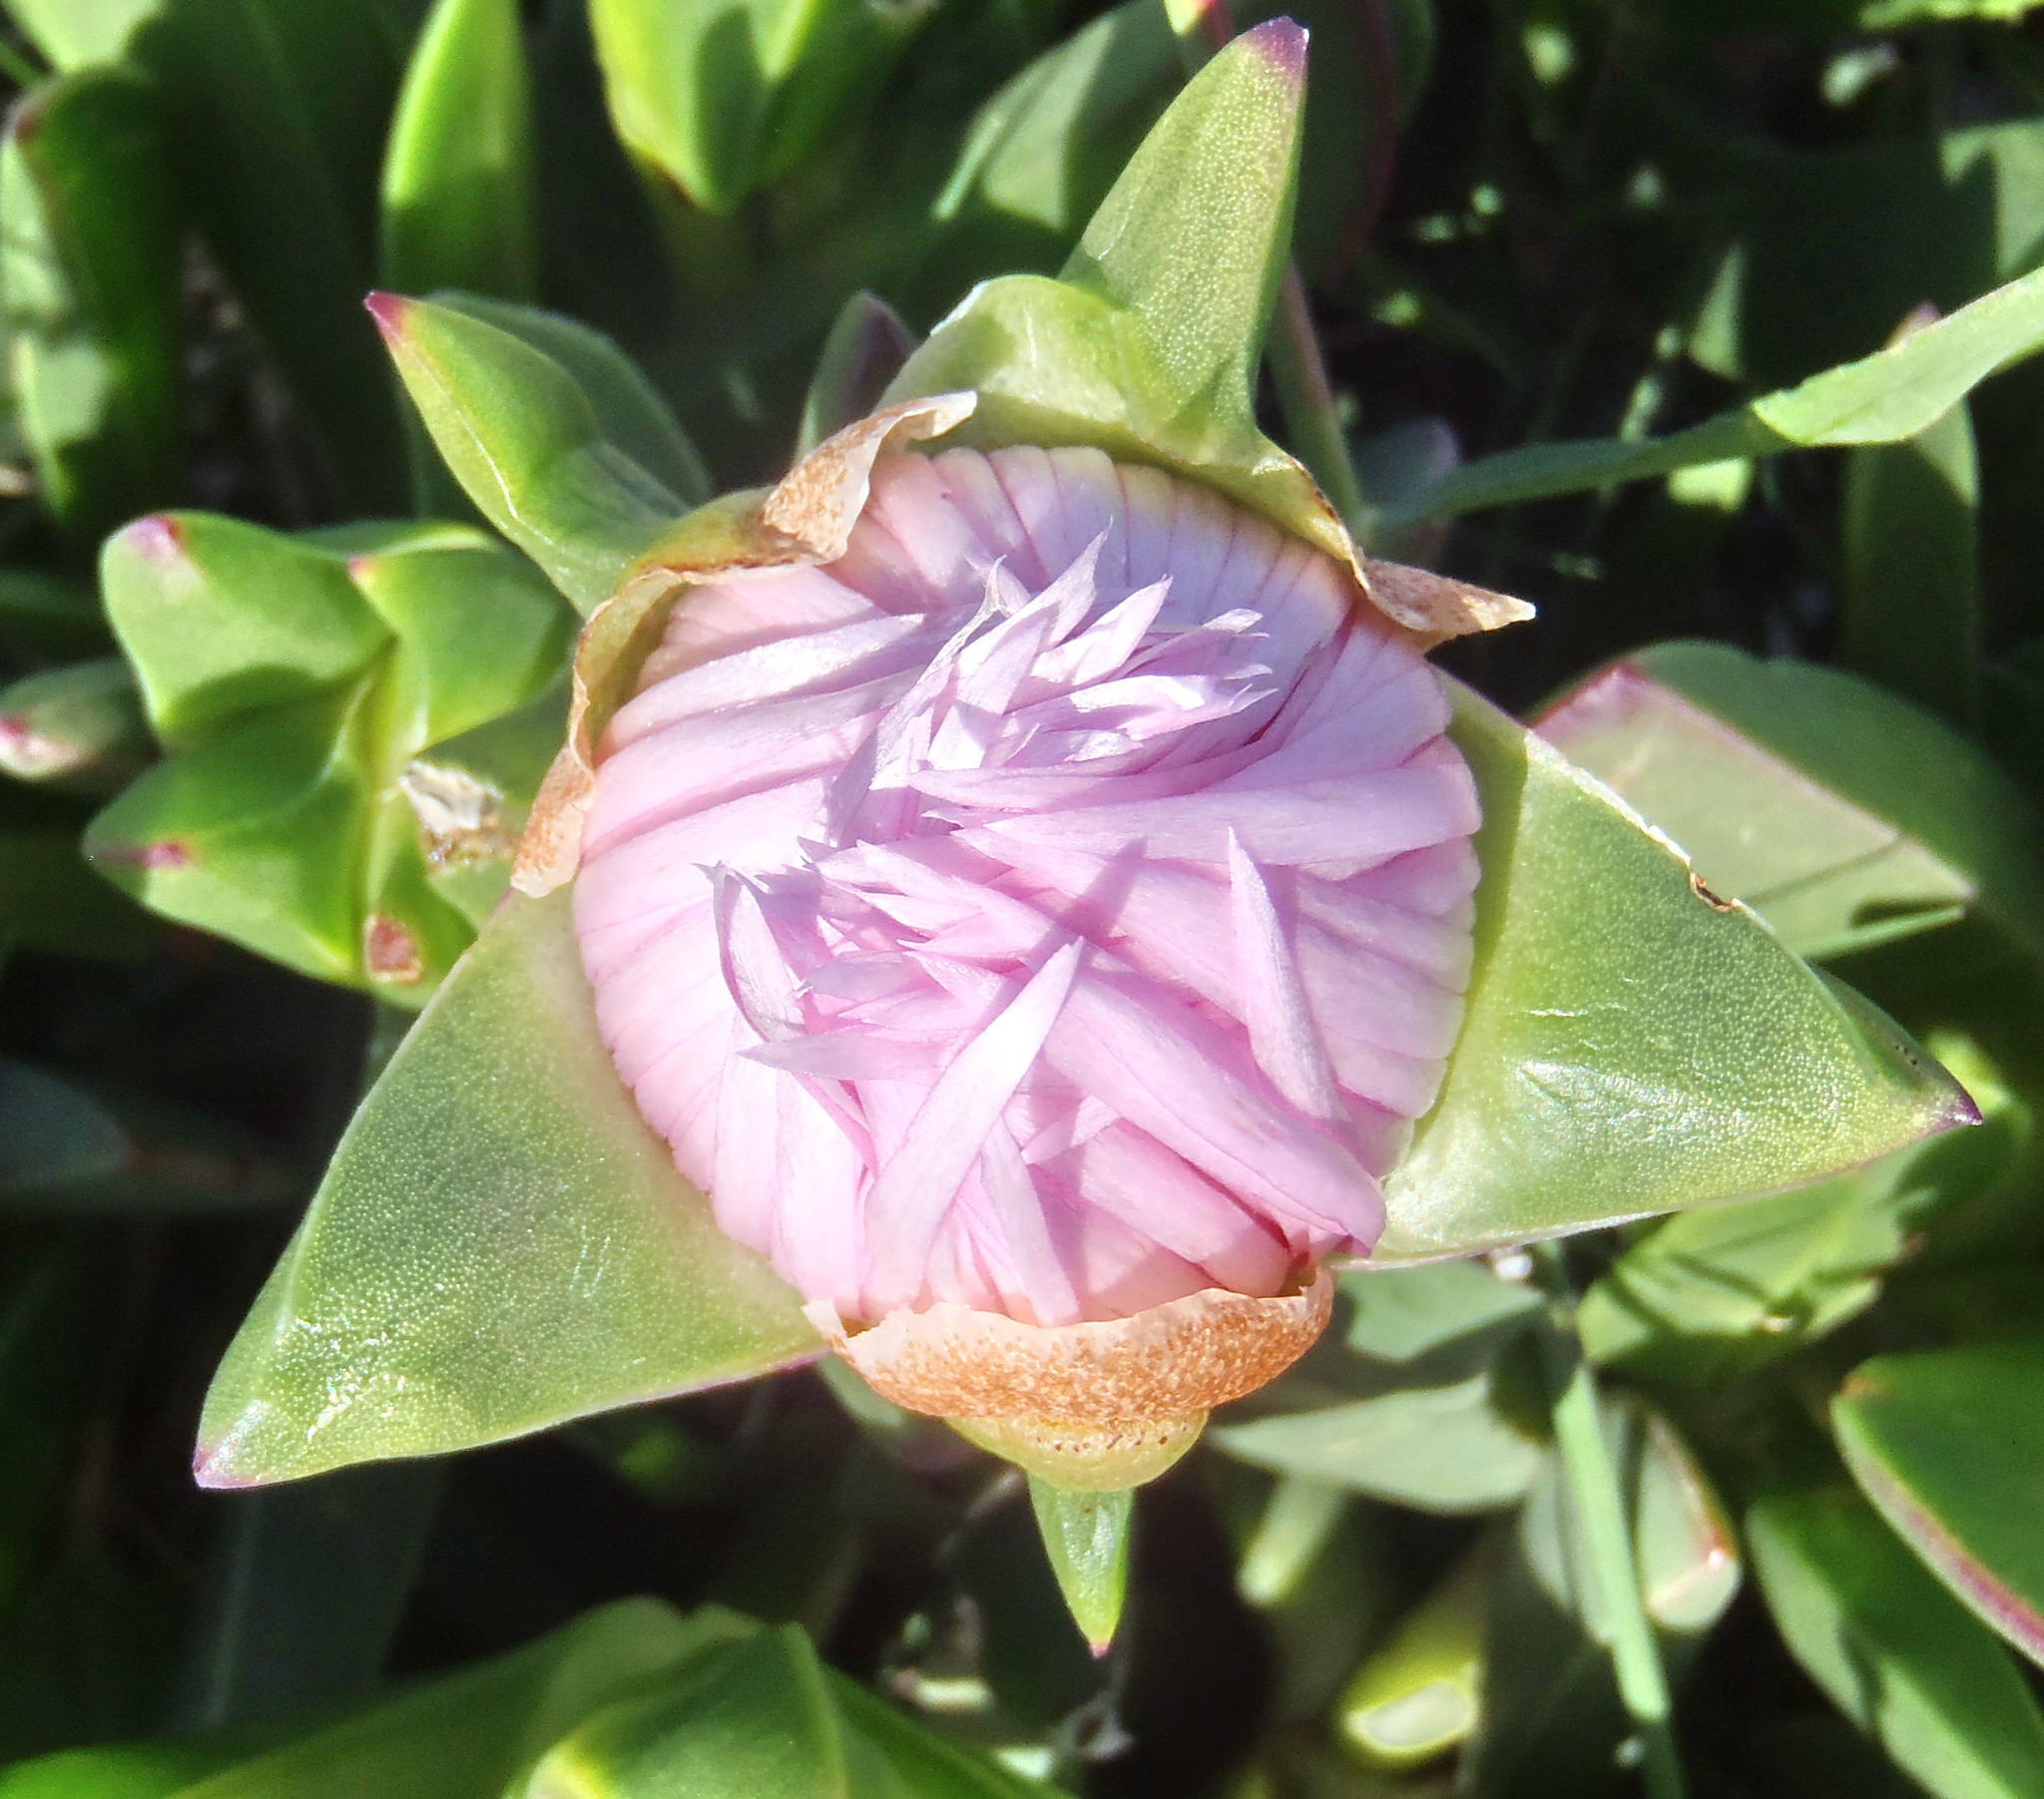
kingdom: Plantae
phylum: Tracheophyta
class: Magnoliopsida
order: Caryophyllales
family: Aizoaceae
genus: Carpobrotus
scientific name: Carpobrotus mellei
